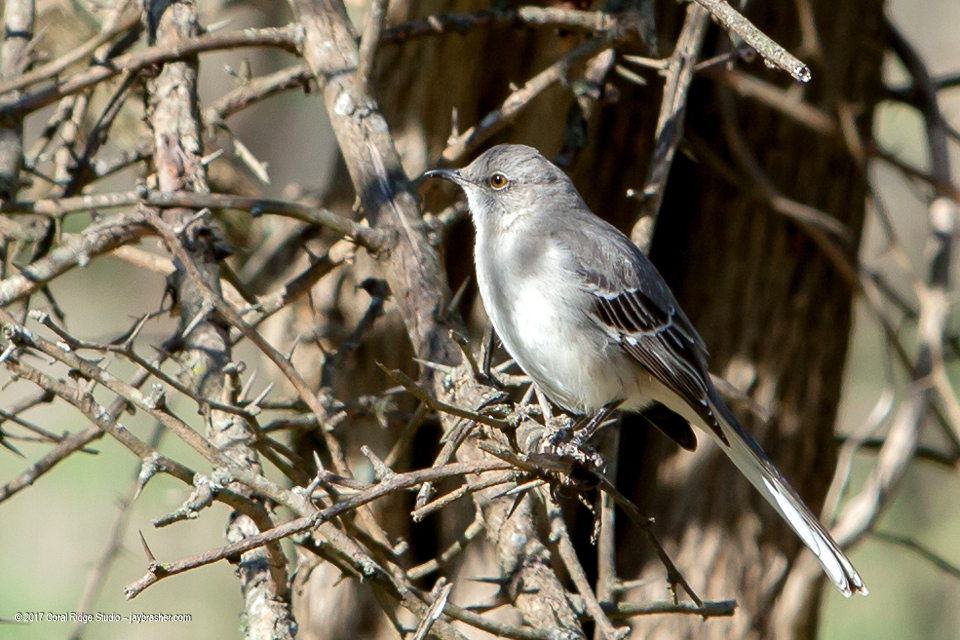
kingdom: Animalia
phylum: Chordata
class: Aves
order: Passeriformes
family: Mimidae
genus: Mimus
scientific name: Mimus polyglottos
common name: Northern mockingbird
